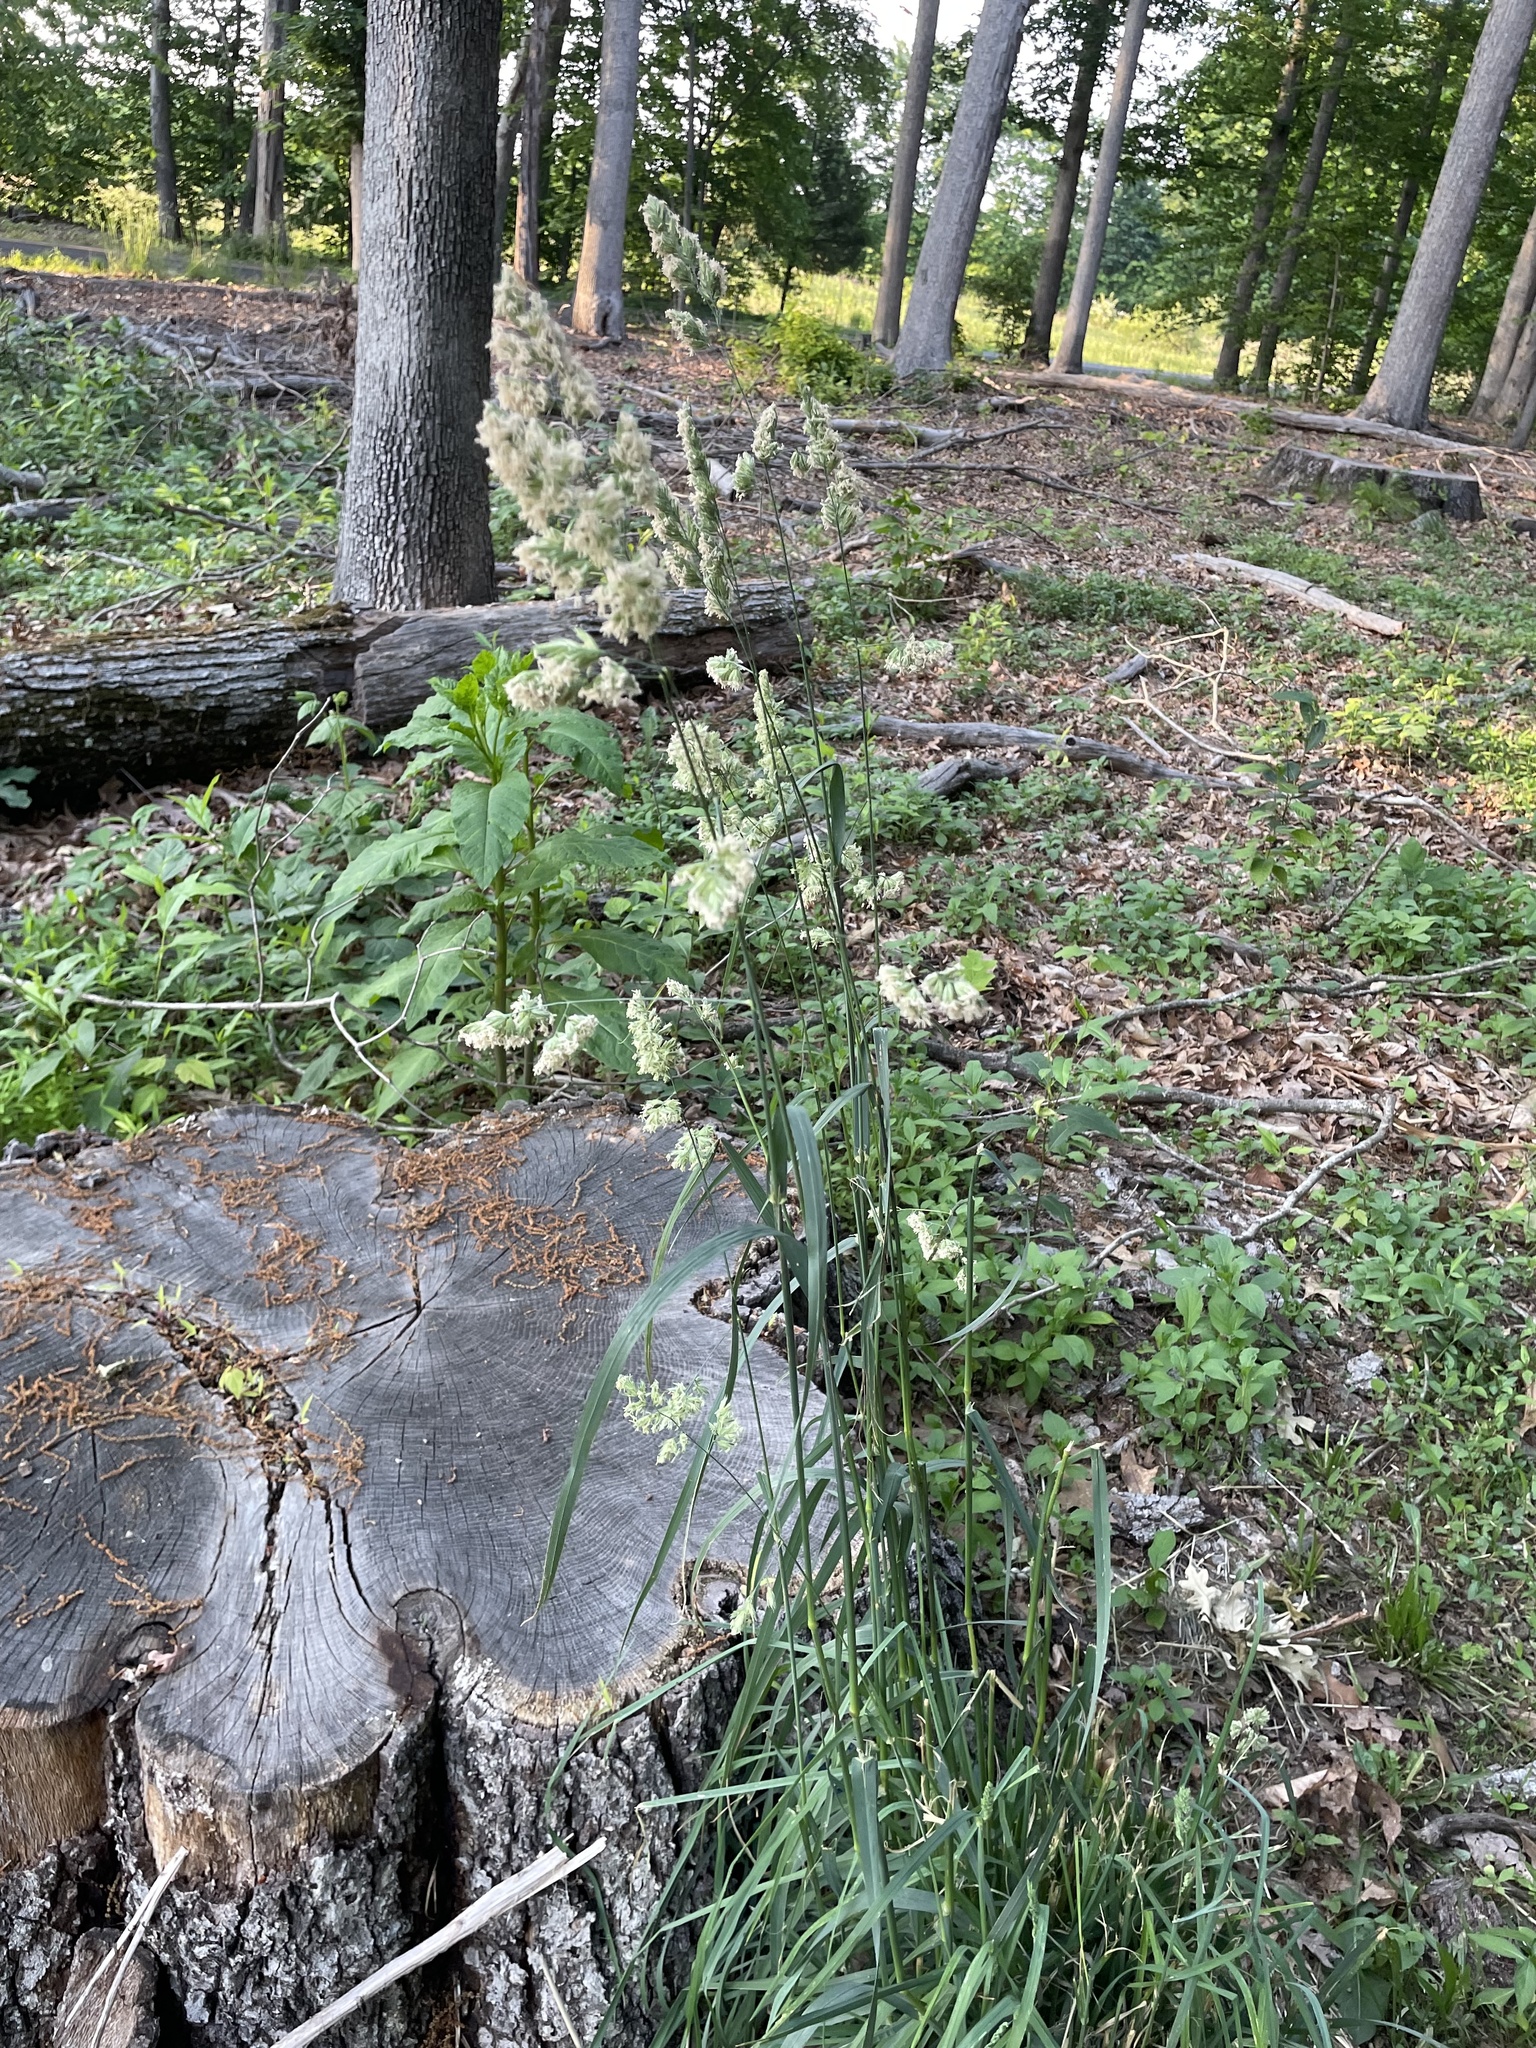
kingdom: Plantae
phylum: Tracheophyta
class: Liliopsida
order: Poales
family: Poaceae
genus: Dactylis
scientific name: Dactylis glomerata
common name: Orchardgrass
